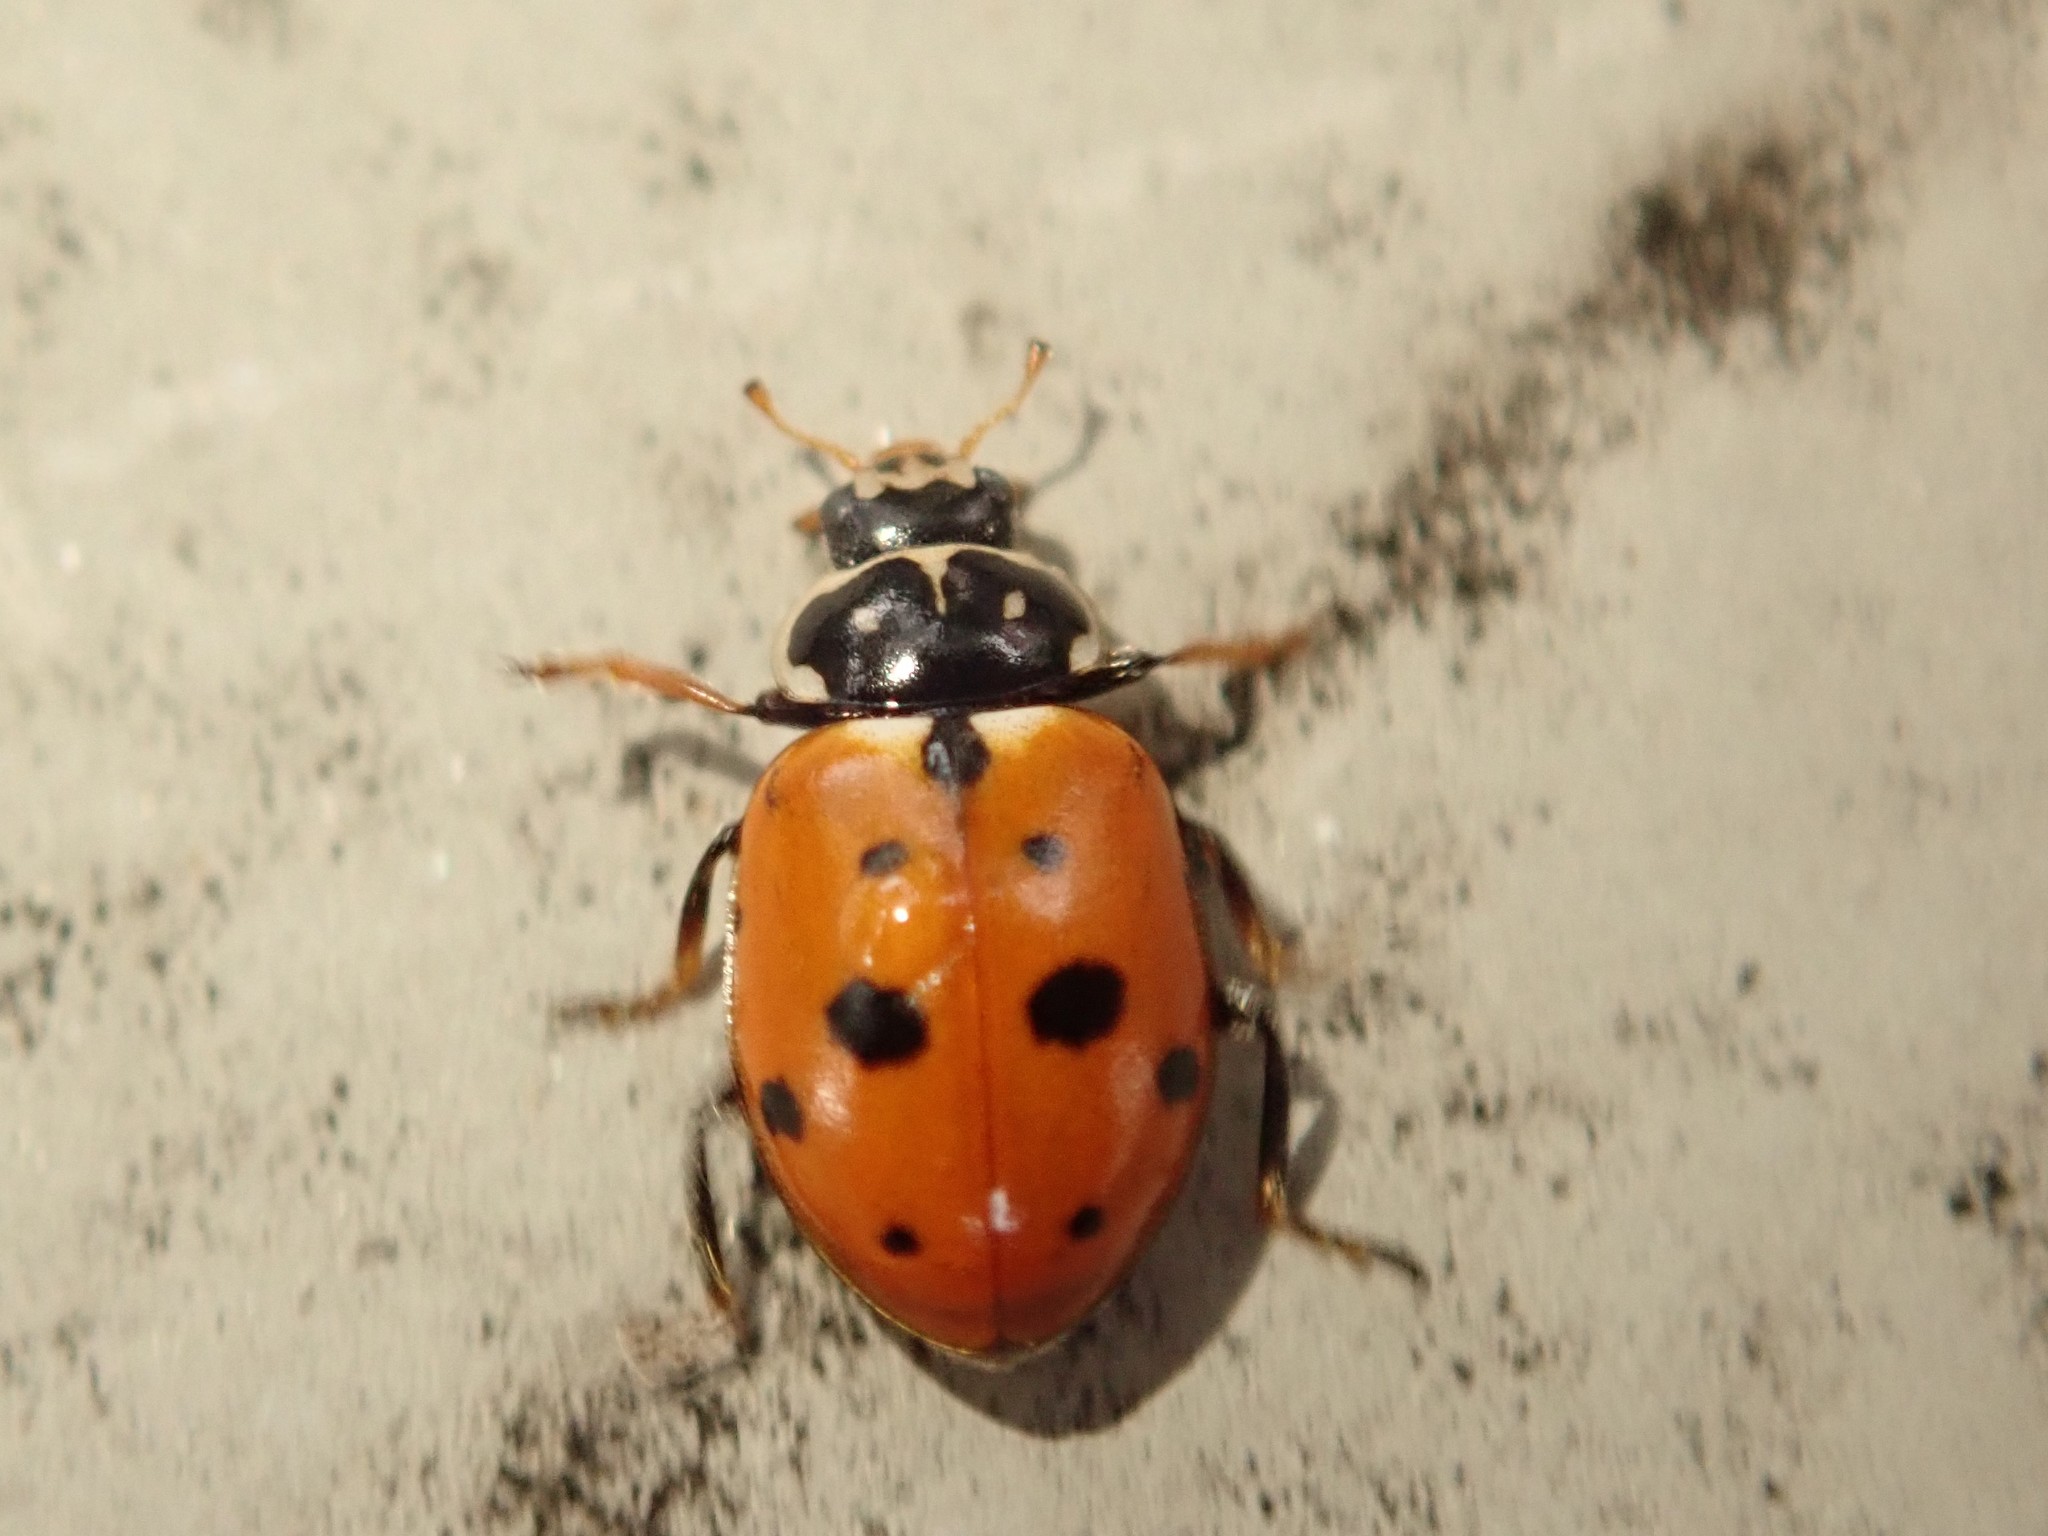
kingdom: Animalia
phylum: Arthropoda
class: Insecta
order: Coleoptera
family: Coccinellidae
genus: Hippodamia
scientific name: Hippodamia variegata
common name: Ladybird beetle
